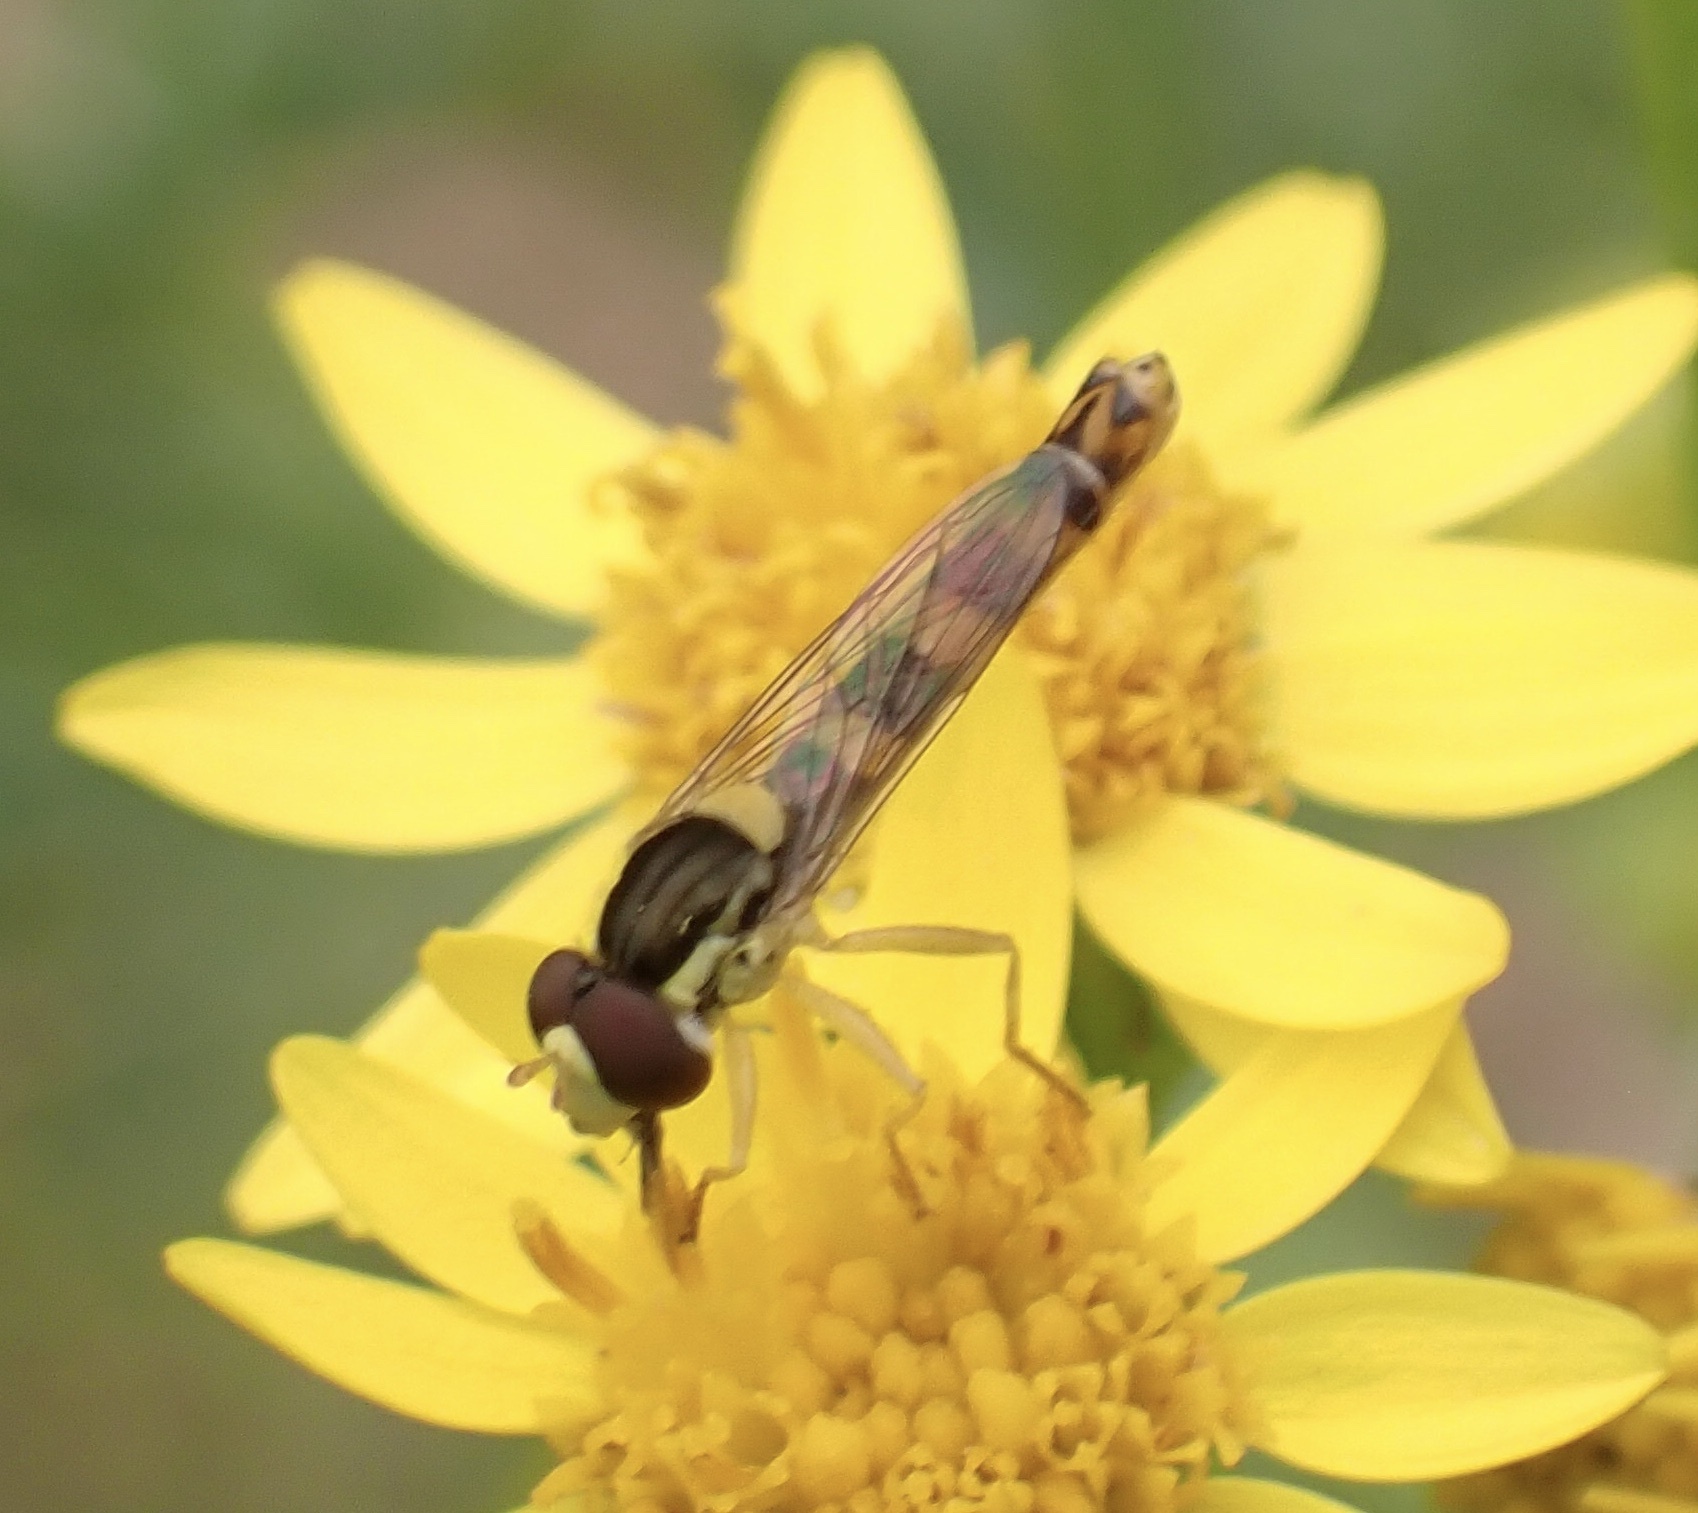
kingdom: Animalia
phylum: Arthropoda
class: Insecta
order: Diptera
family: Syrphidae
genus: Sphaerophoria
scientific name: Sphaerophoria scripta
